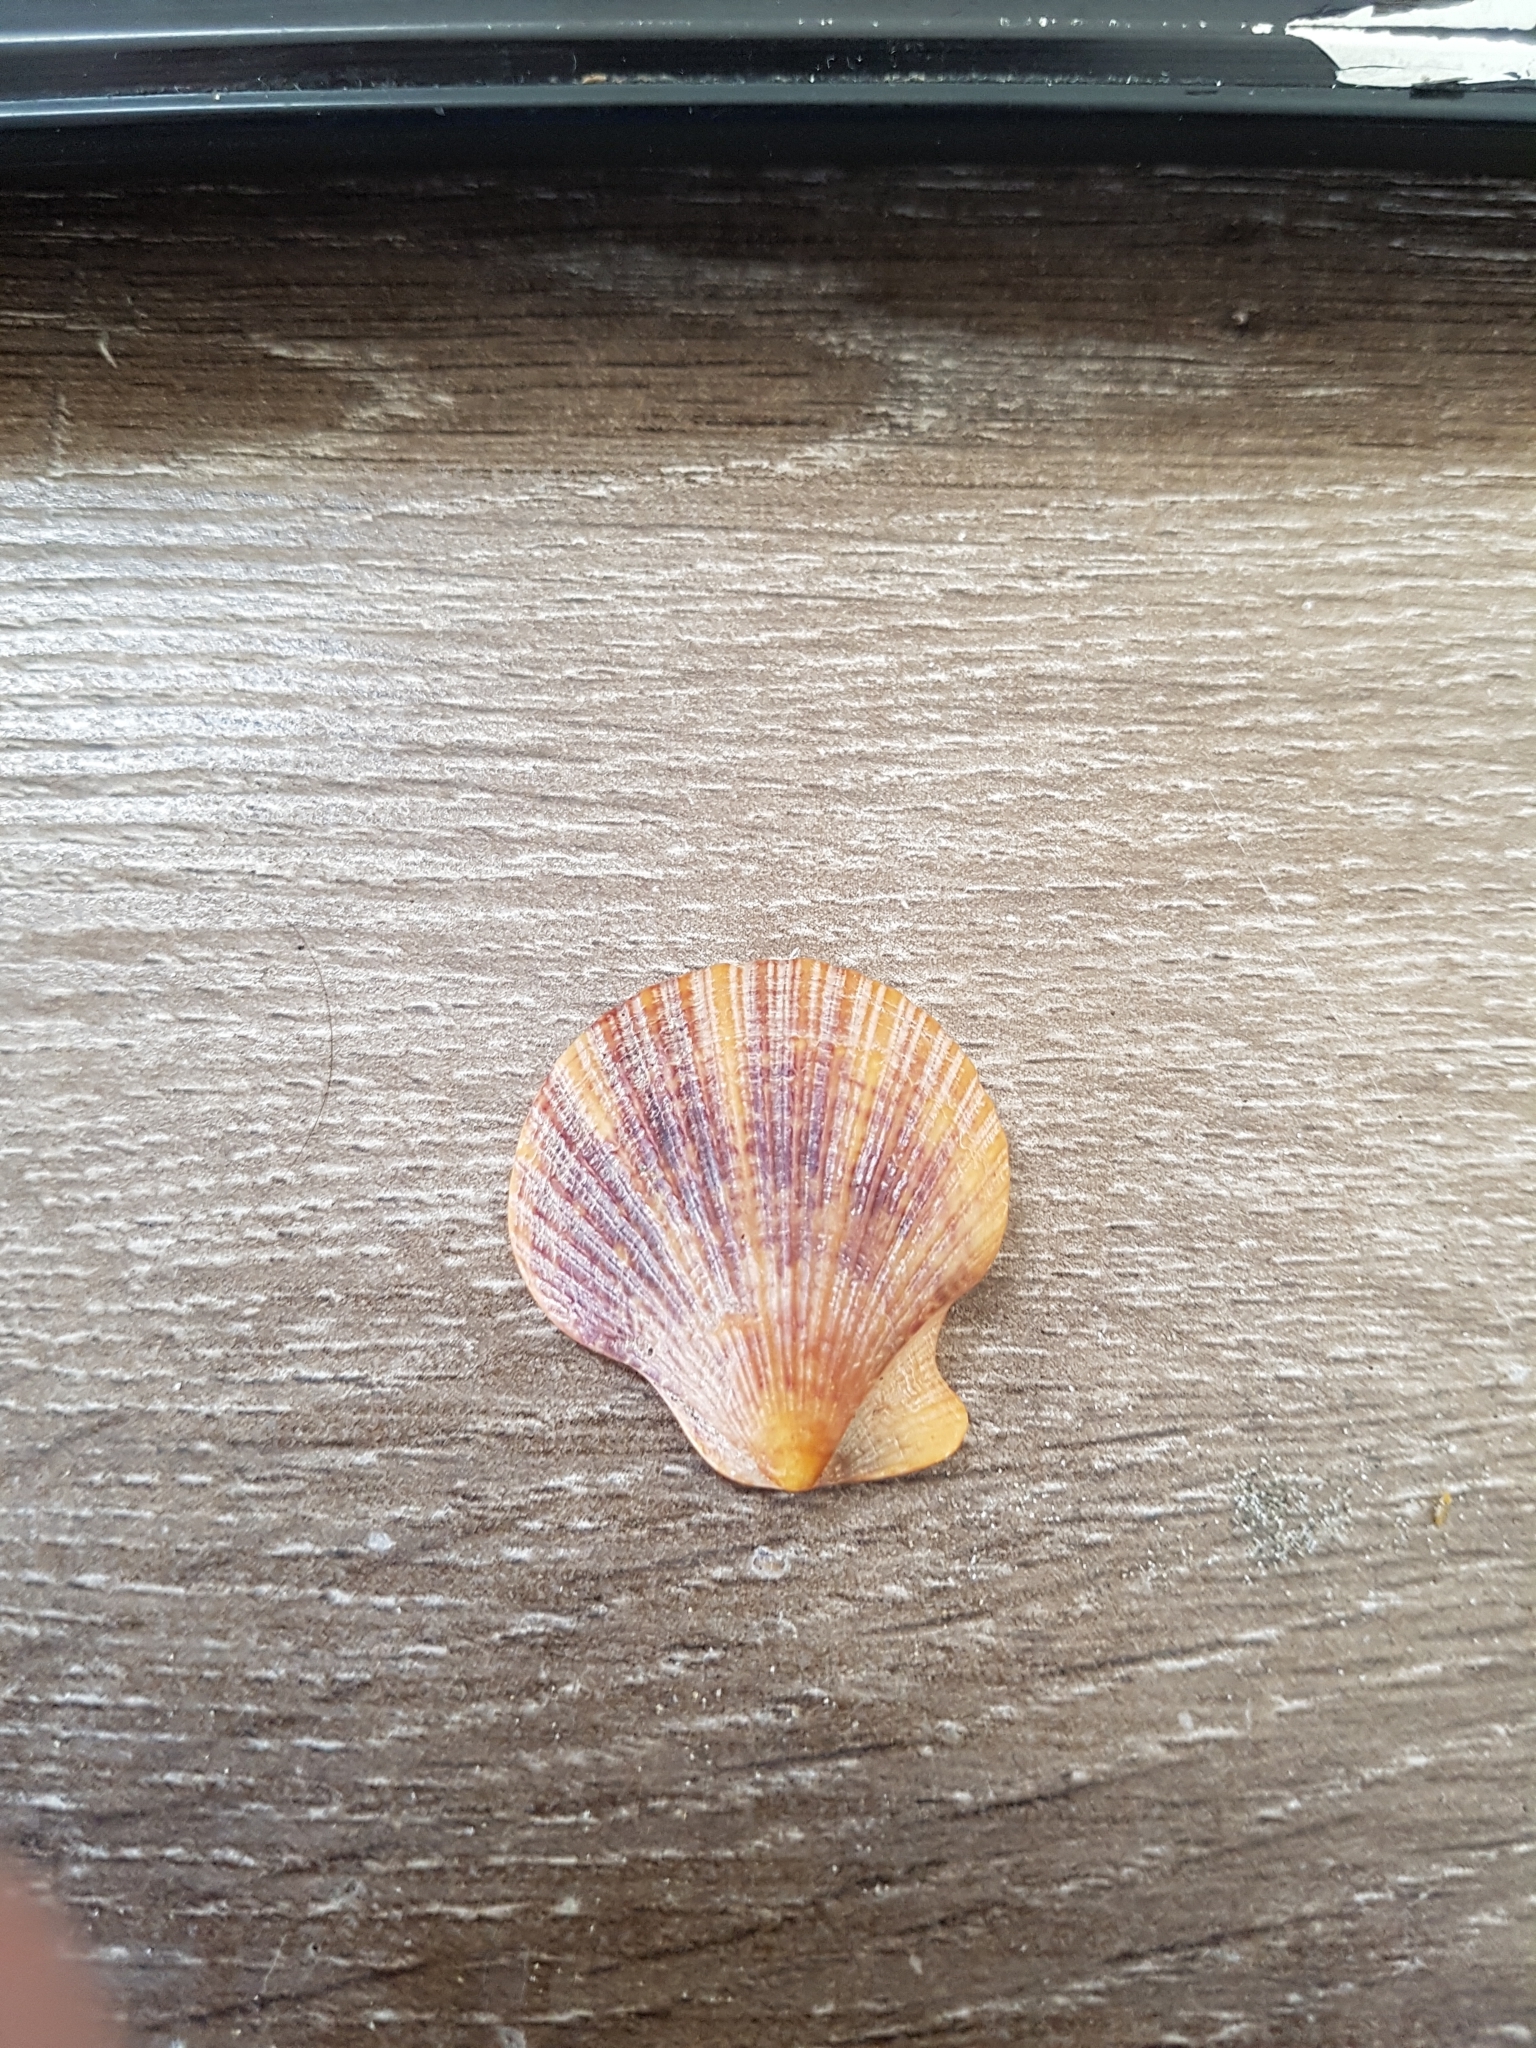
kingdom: Animalia
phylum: Mollusca
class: Bivalvia
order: Pectinida
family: Pectinidae
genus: Talochlamys
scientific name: Talochlamys zelandiae
